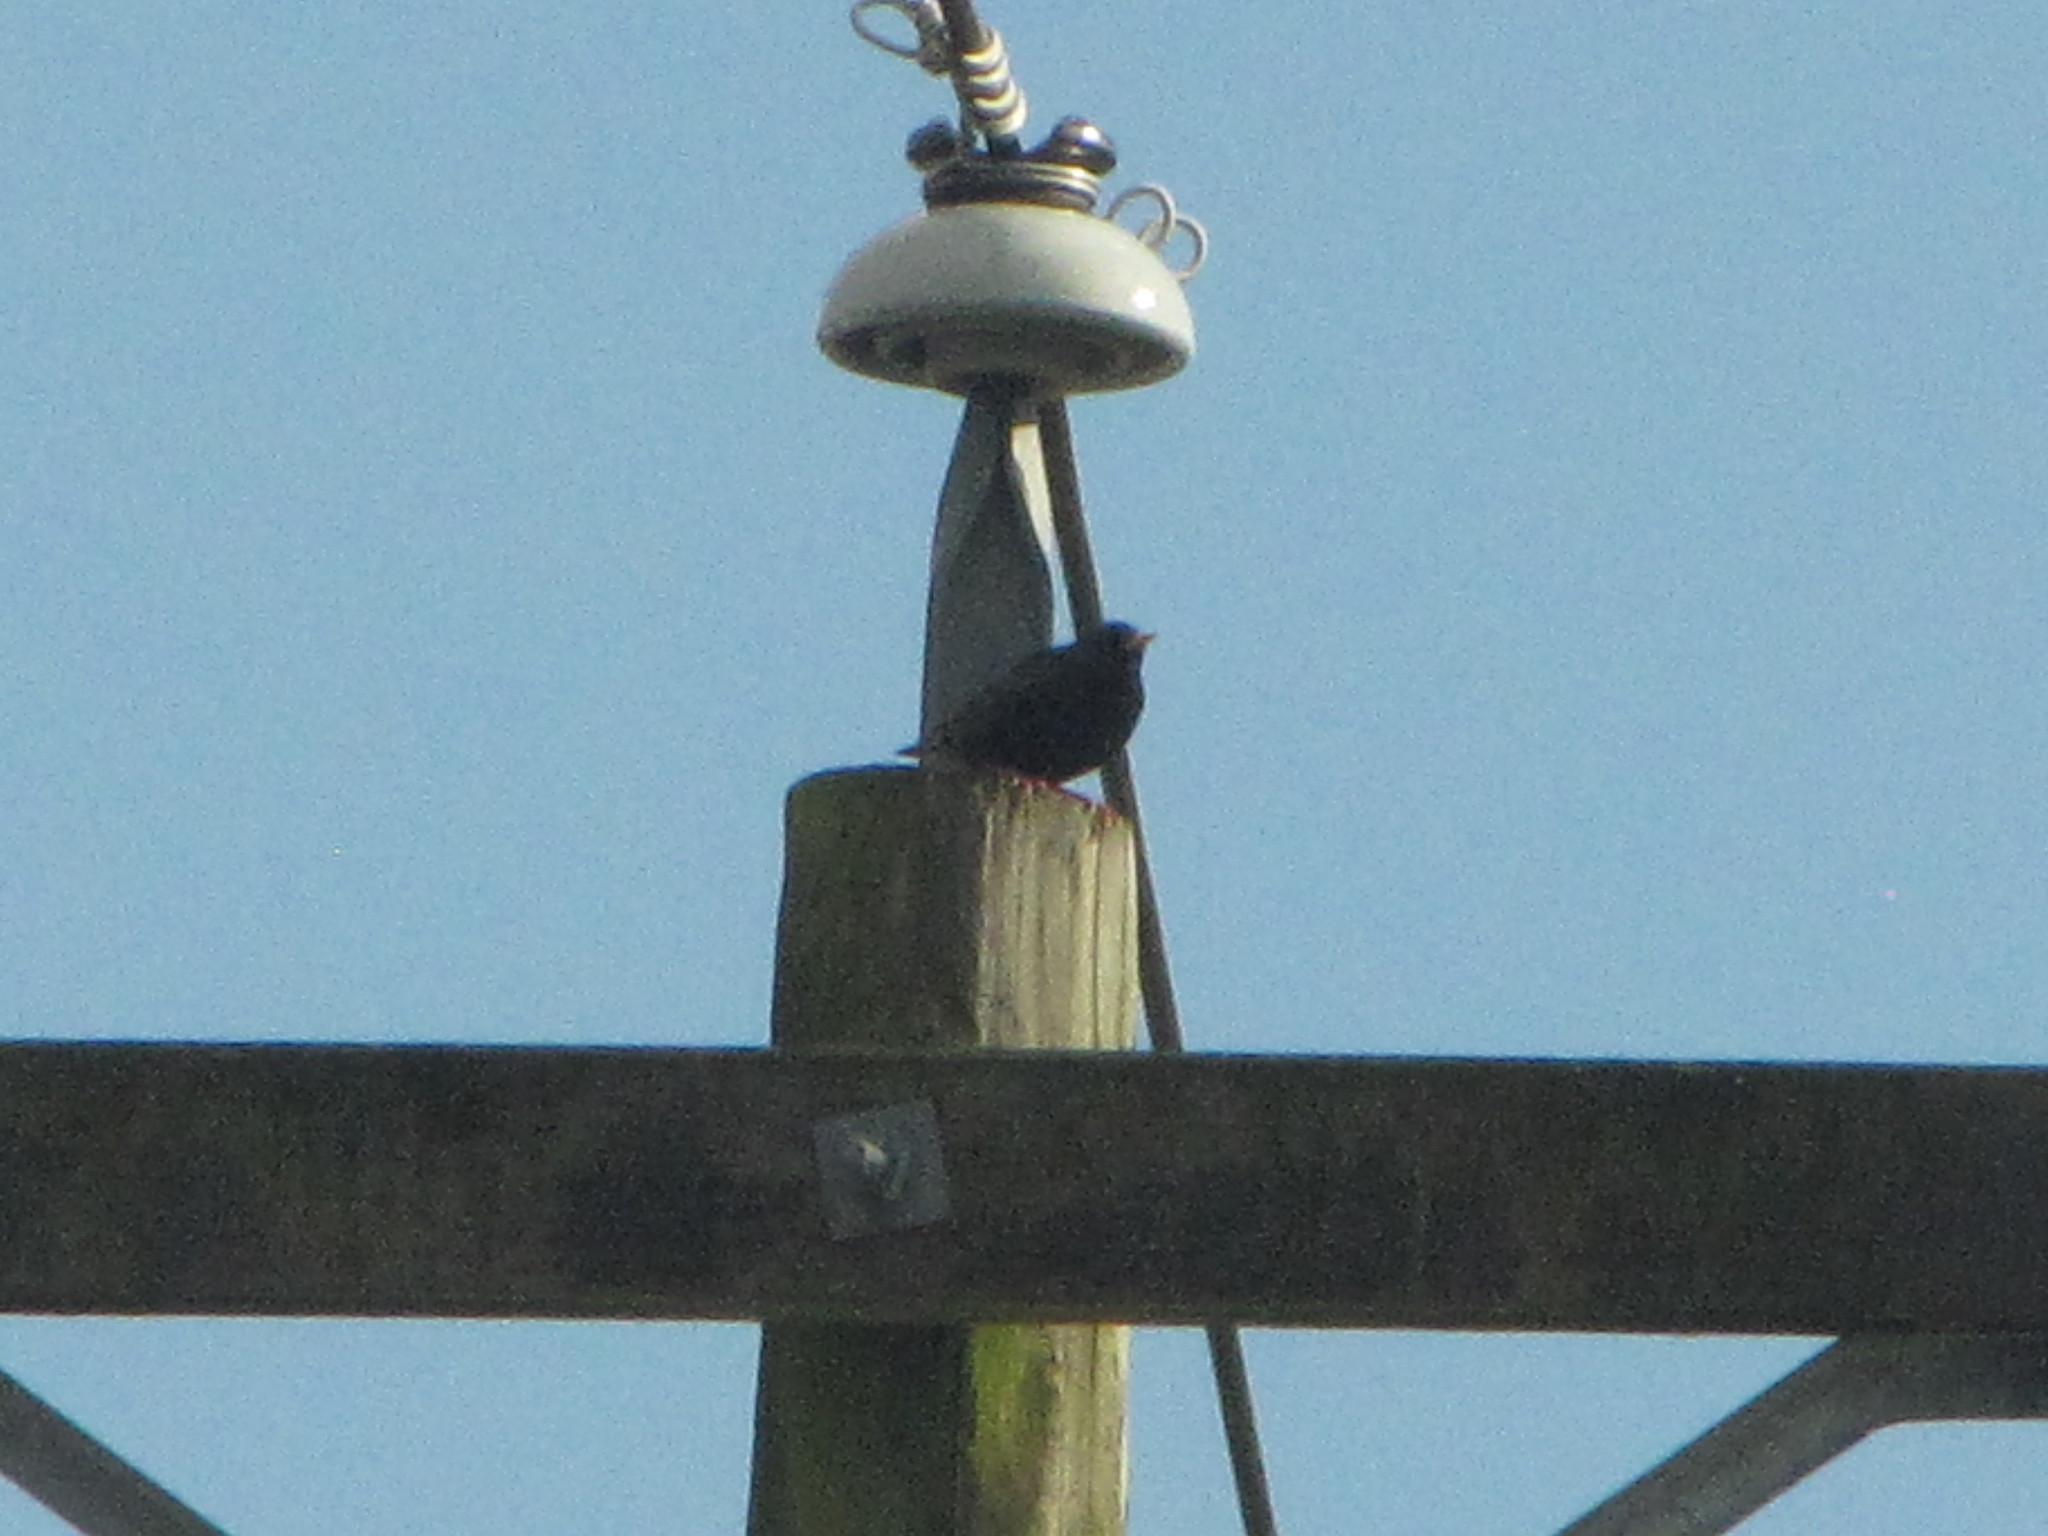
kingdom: Animalia
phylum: Chordata
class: Aves
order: Passeriformes
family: Sturnidae
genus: Sturnus
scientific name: Sturnus vulgaris
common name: Common starling
